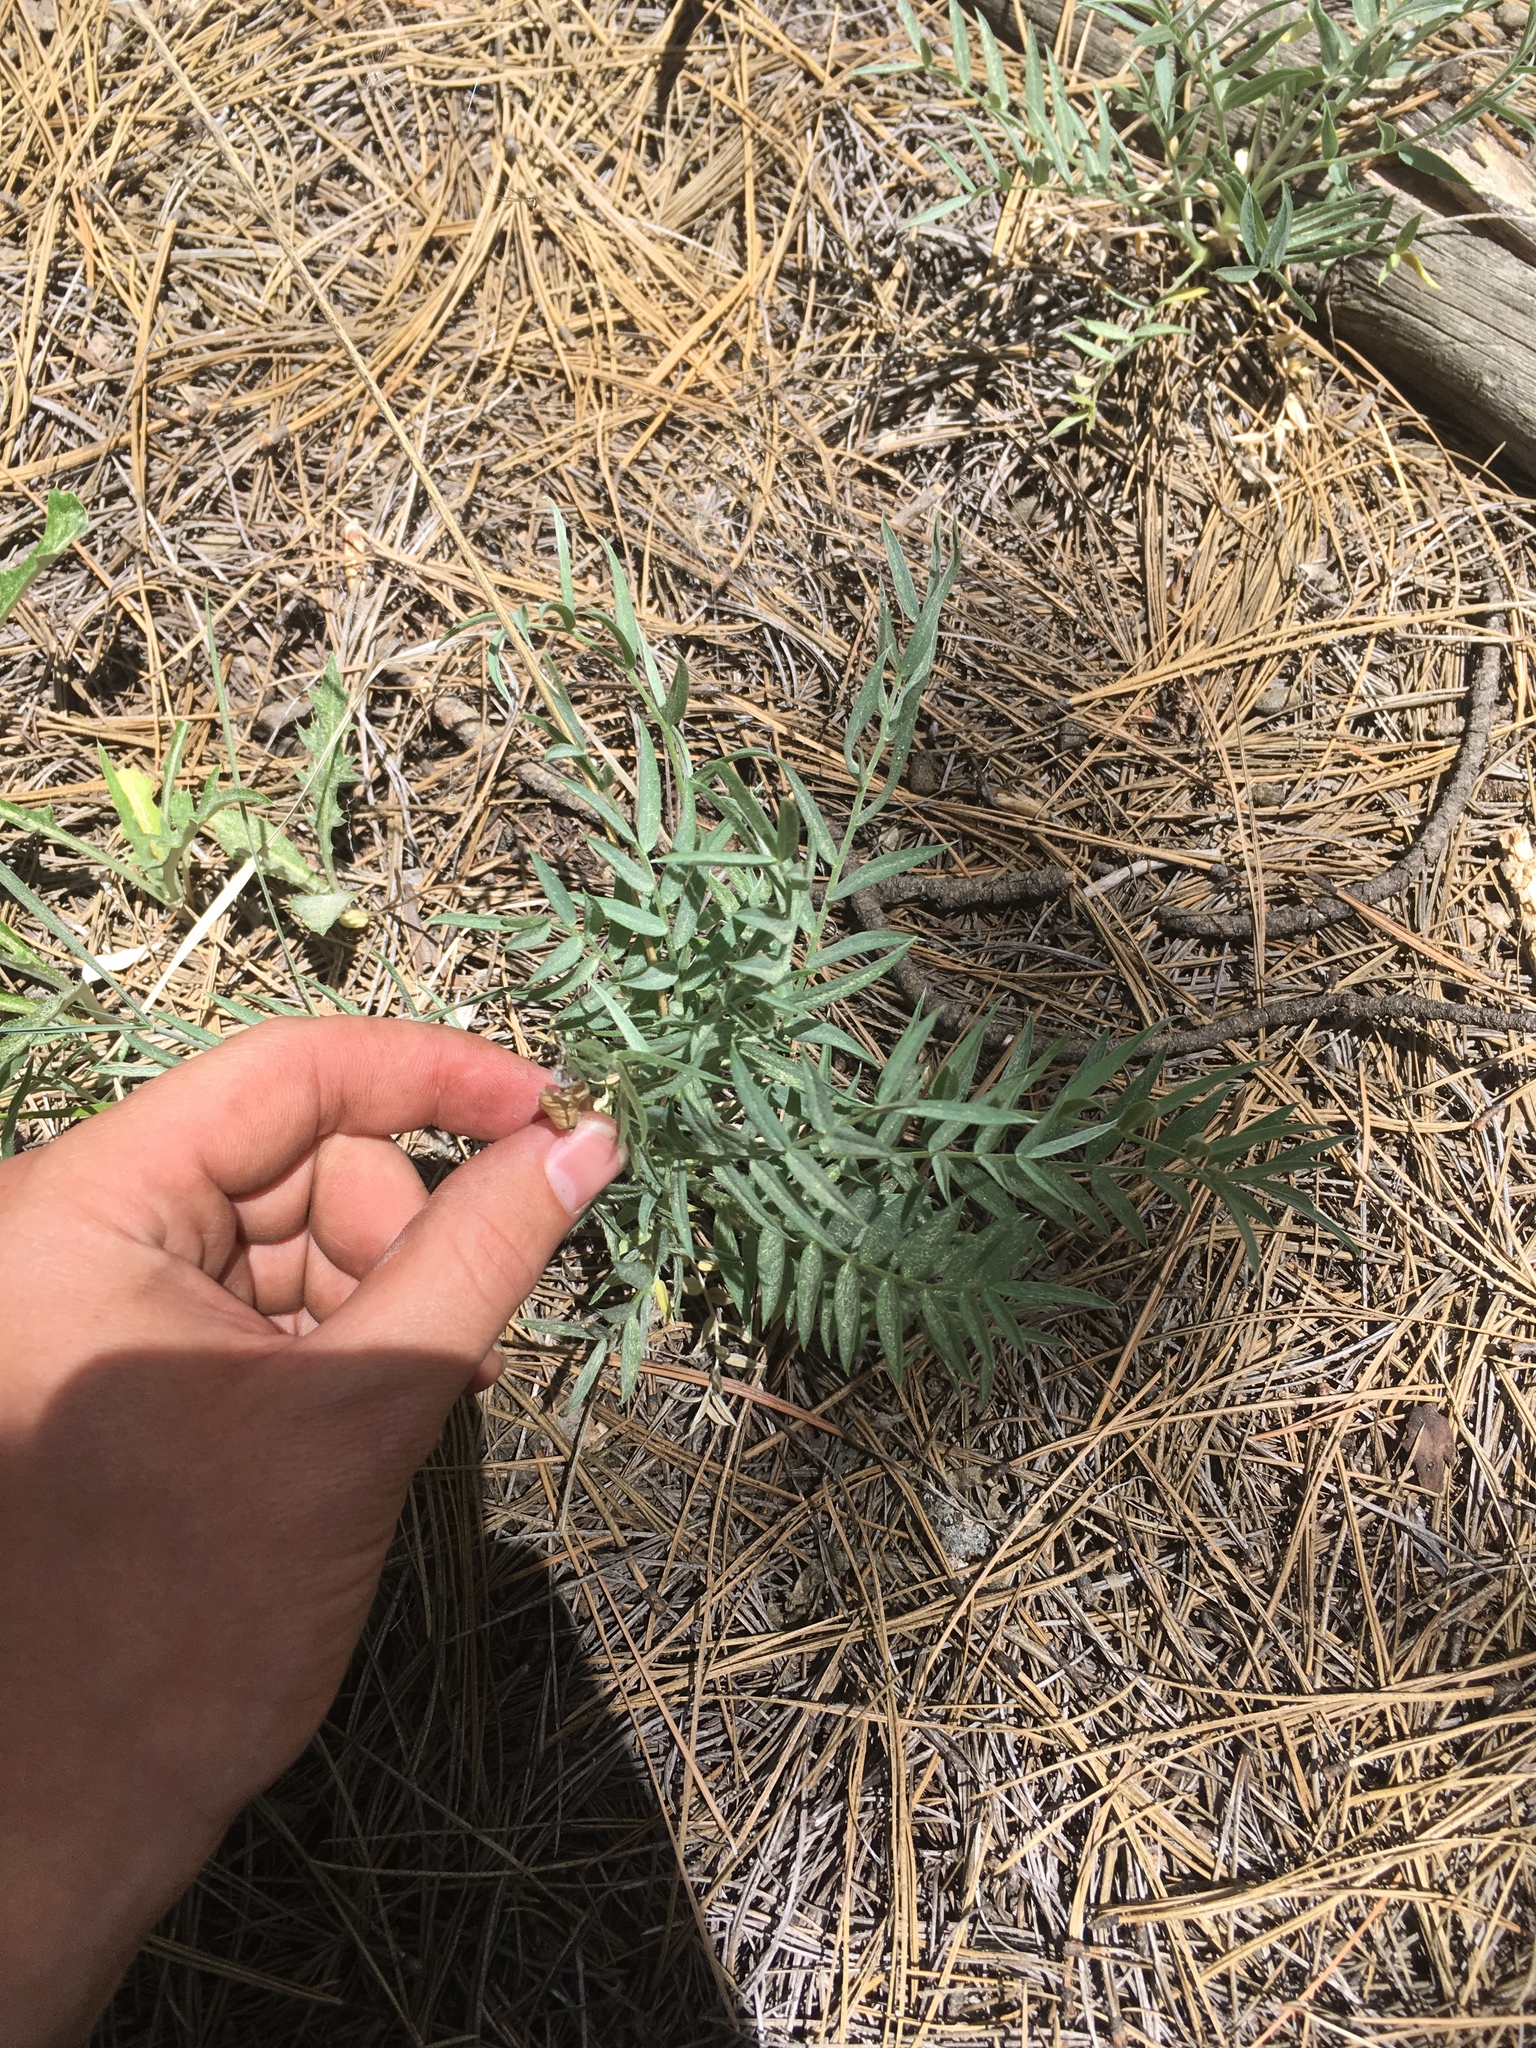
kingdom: Plantae
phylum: Tracheophyta
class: Magnoliopsida
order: Fabales
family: Fabaceae
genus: Oxytropis
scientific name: Oxytropis lambertii
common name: Purple locoweed
